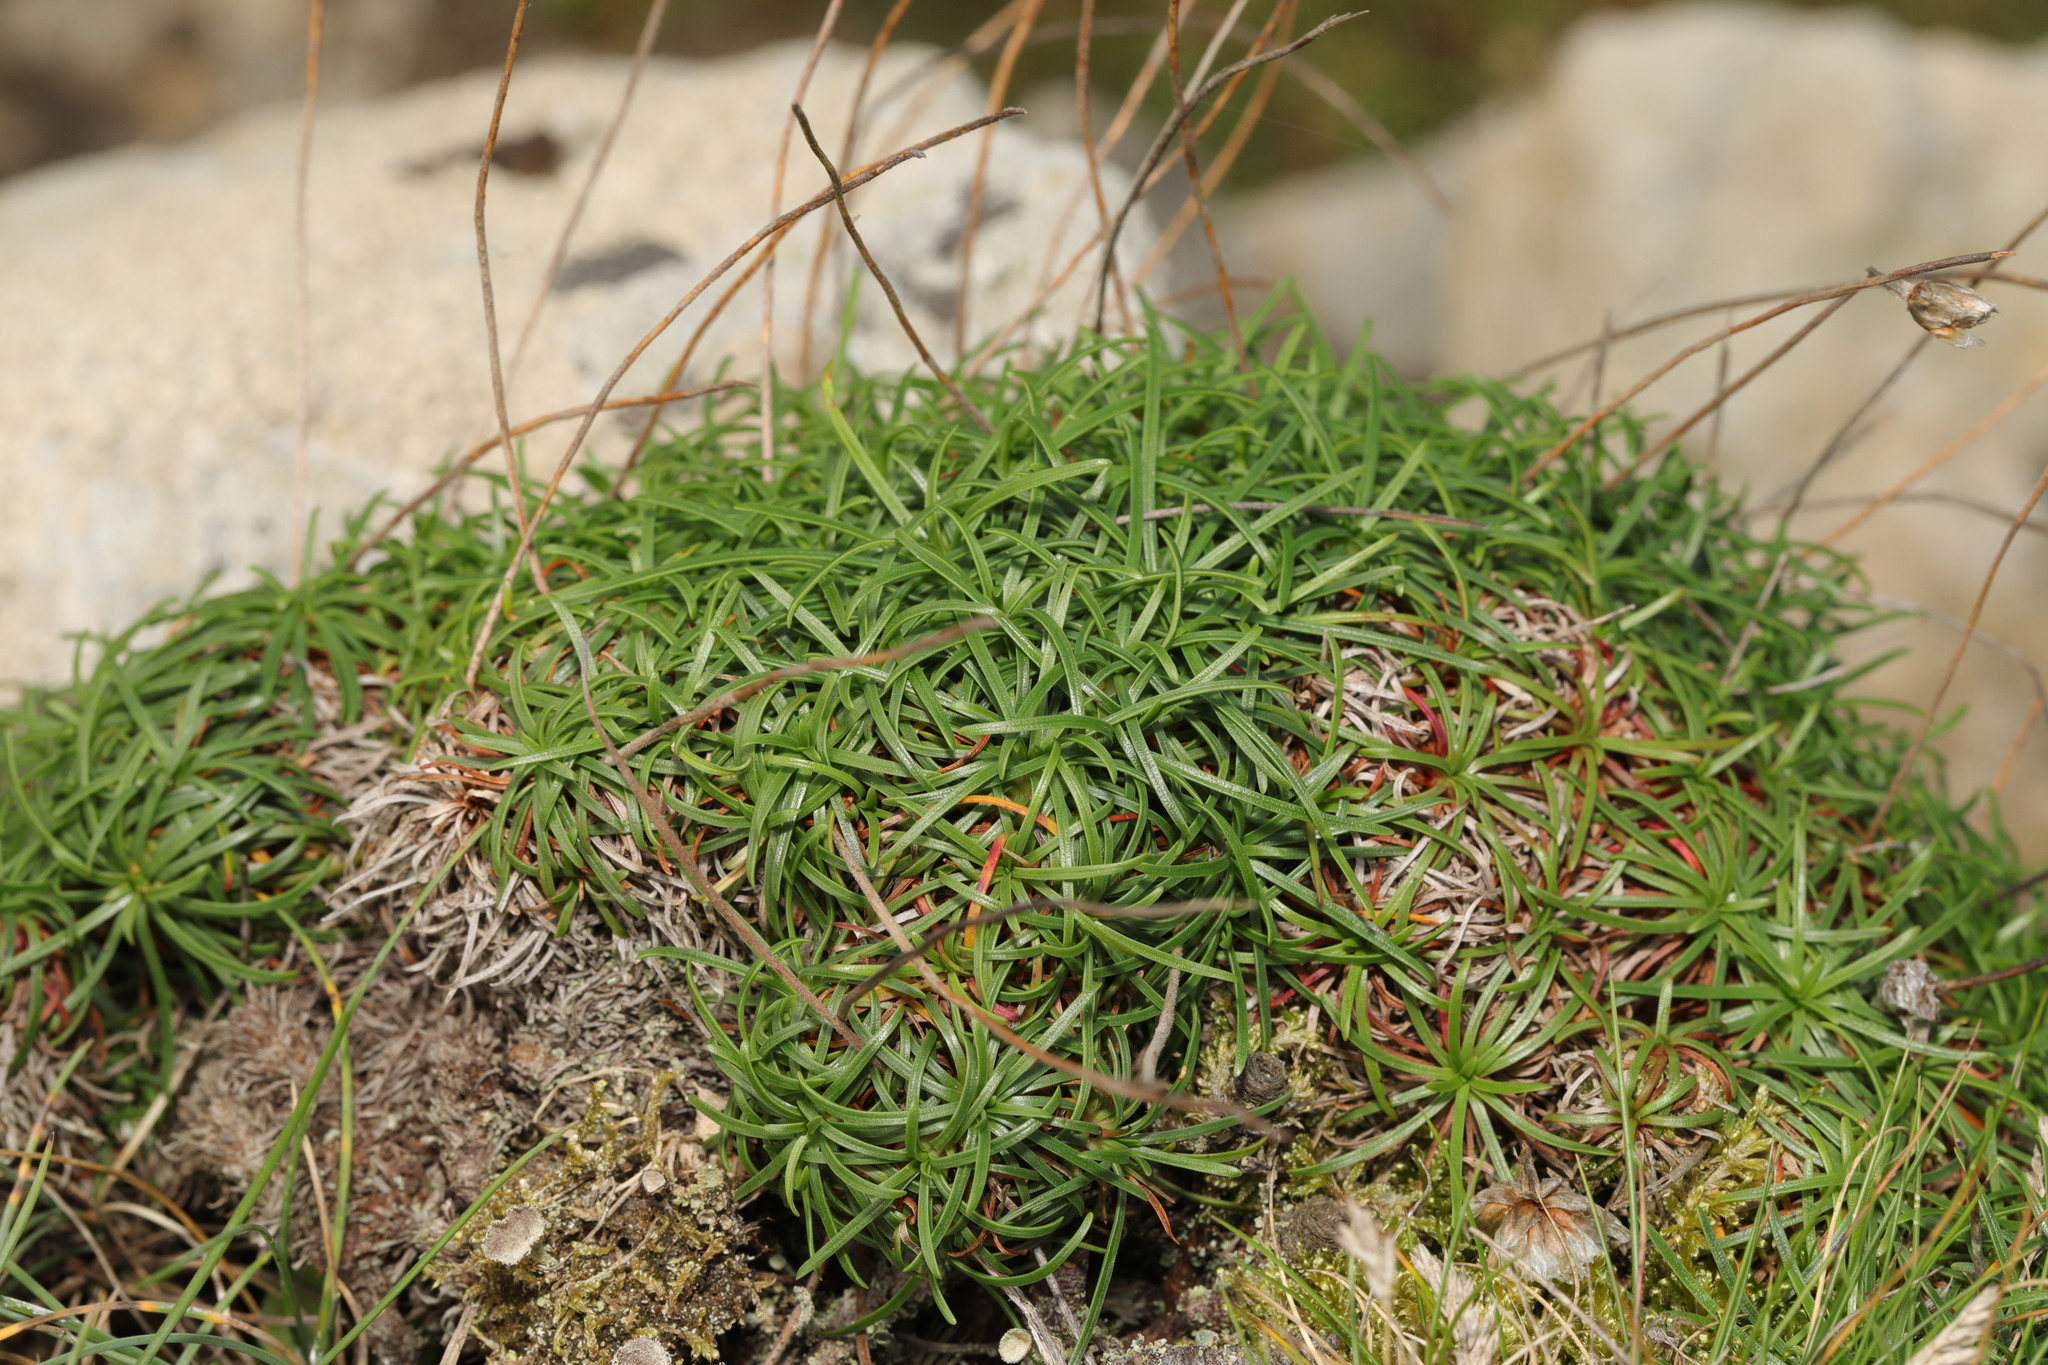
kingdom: Plantae
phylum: Tracheophyta
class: Magnoliopsida
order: Caryophyllales
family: Plumbaginaceae
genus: Armeria
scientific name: Armeria maritima
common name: Thrift
